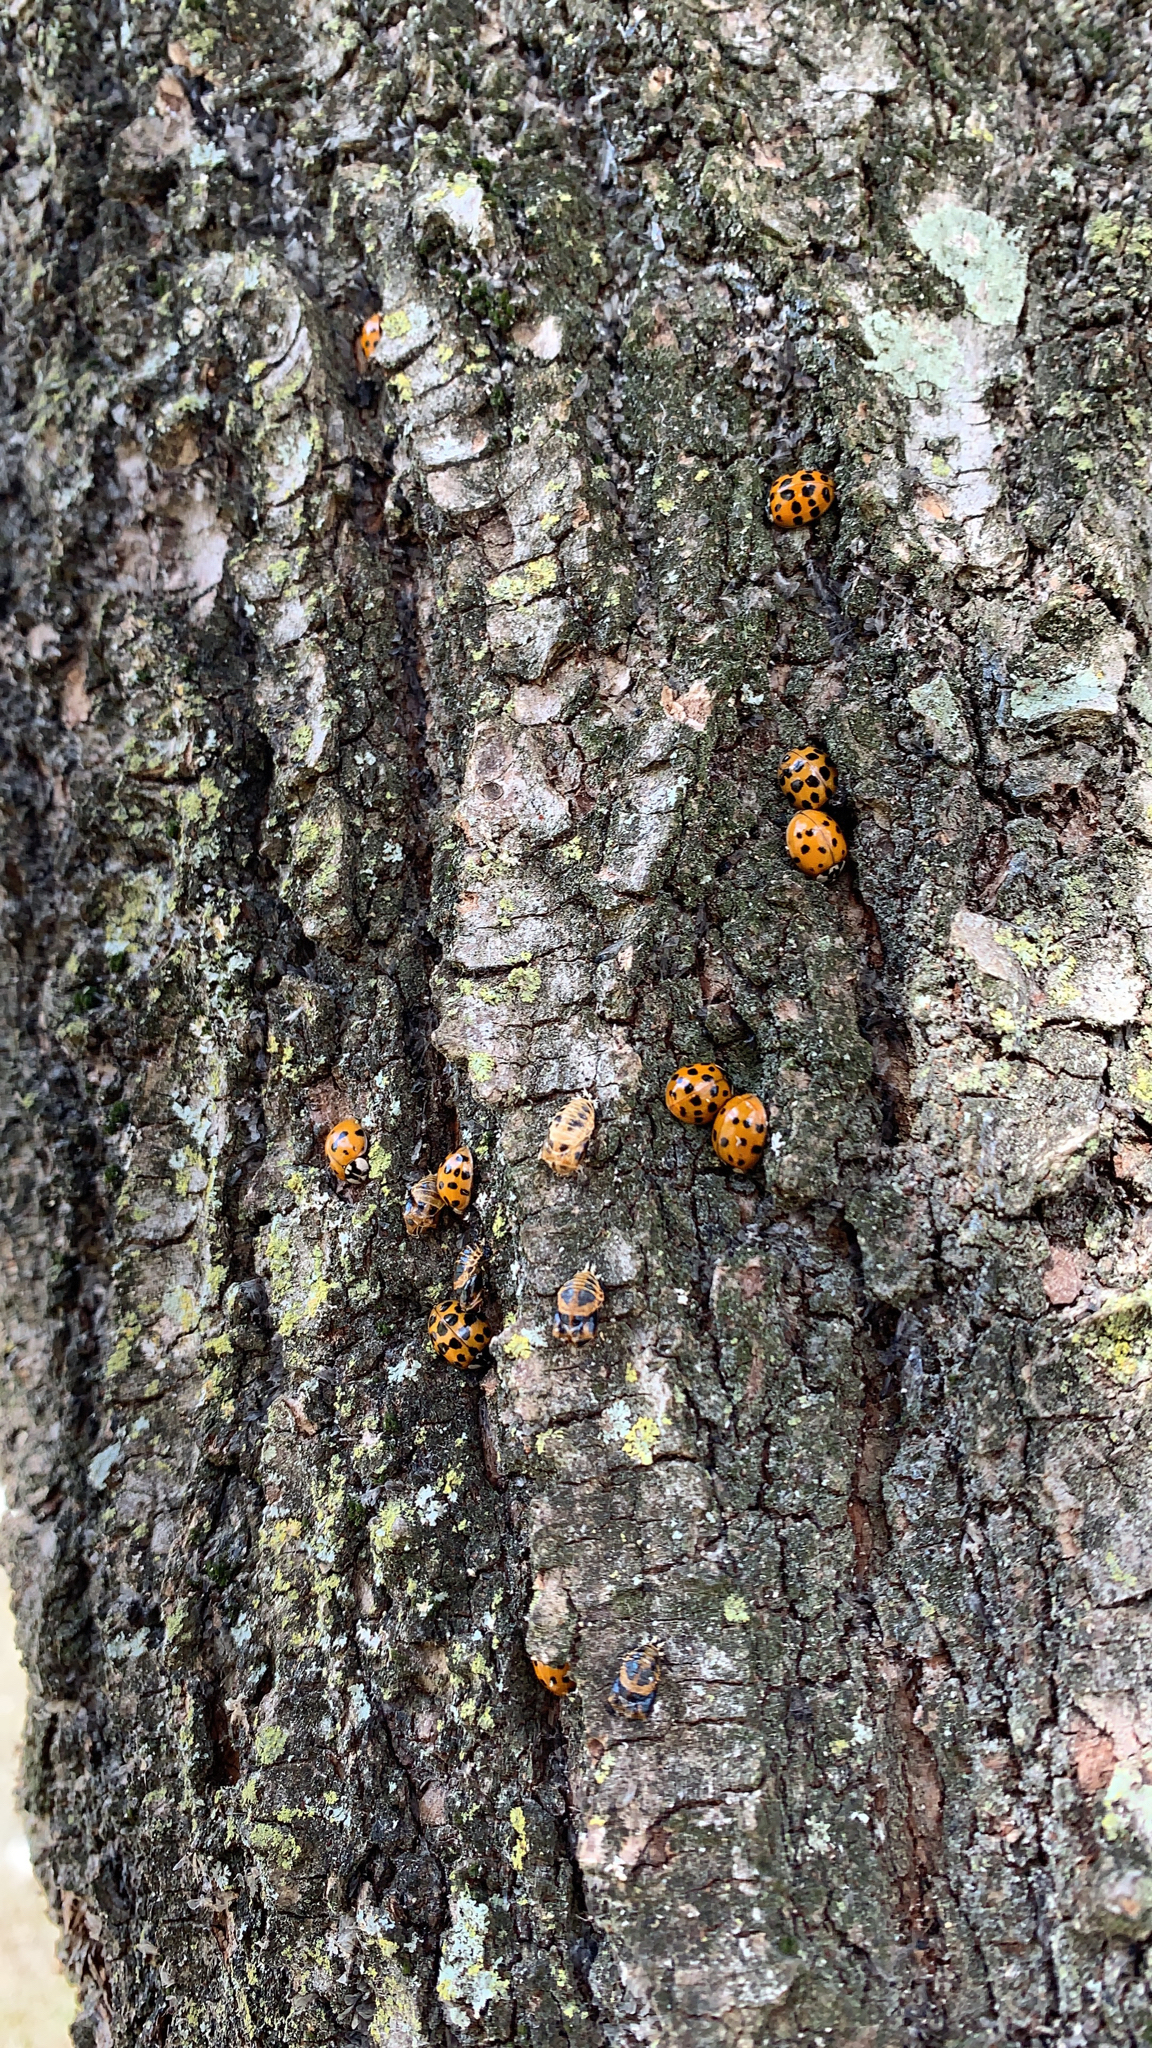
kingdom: Animalia
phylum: Arthropoda
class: Insecta
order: Coleoptera
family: Coccinellidae
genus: Harmonia
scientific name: Harmonia axyridis
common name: Harlequin ladybird
